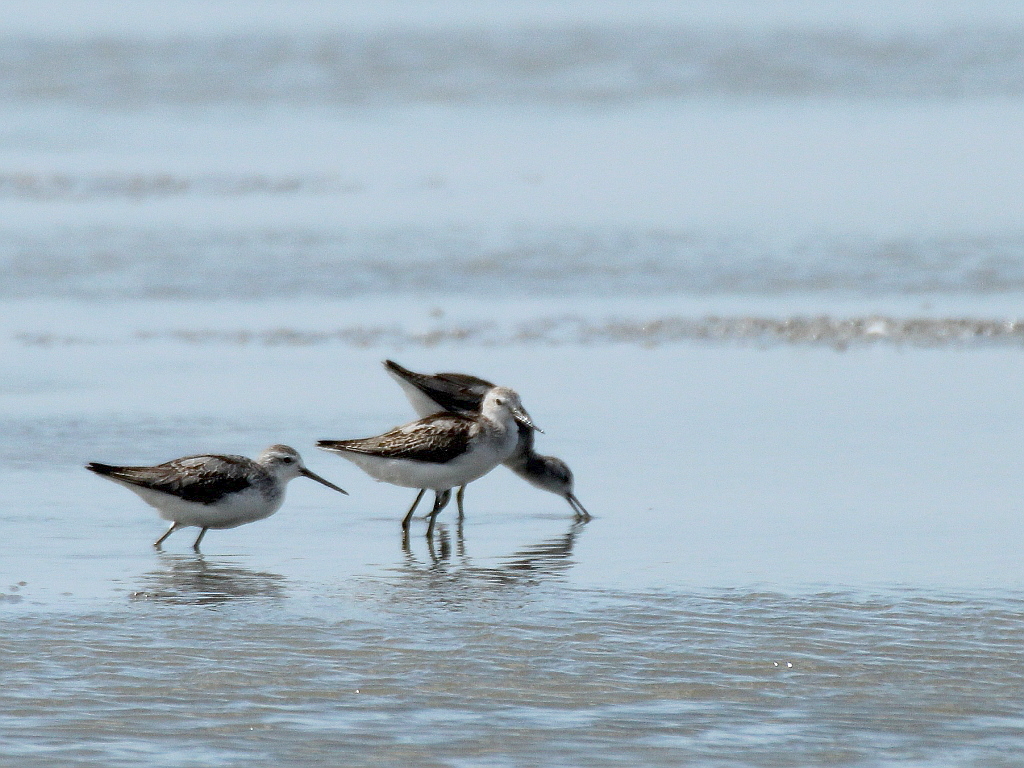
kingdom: Animalia
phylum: Chordata
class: Aves
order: Charadriiformes
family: Scolopacidae
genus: Tringa
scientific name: Tringa stagnatilis
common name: Marsh sandpiper
